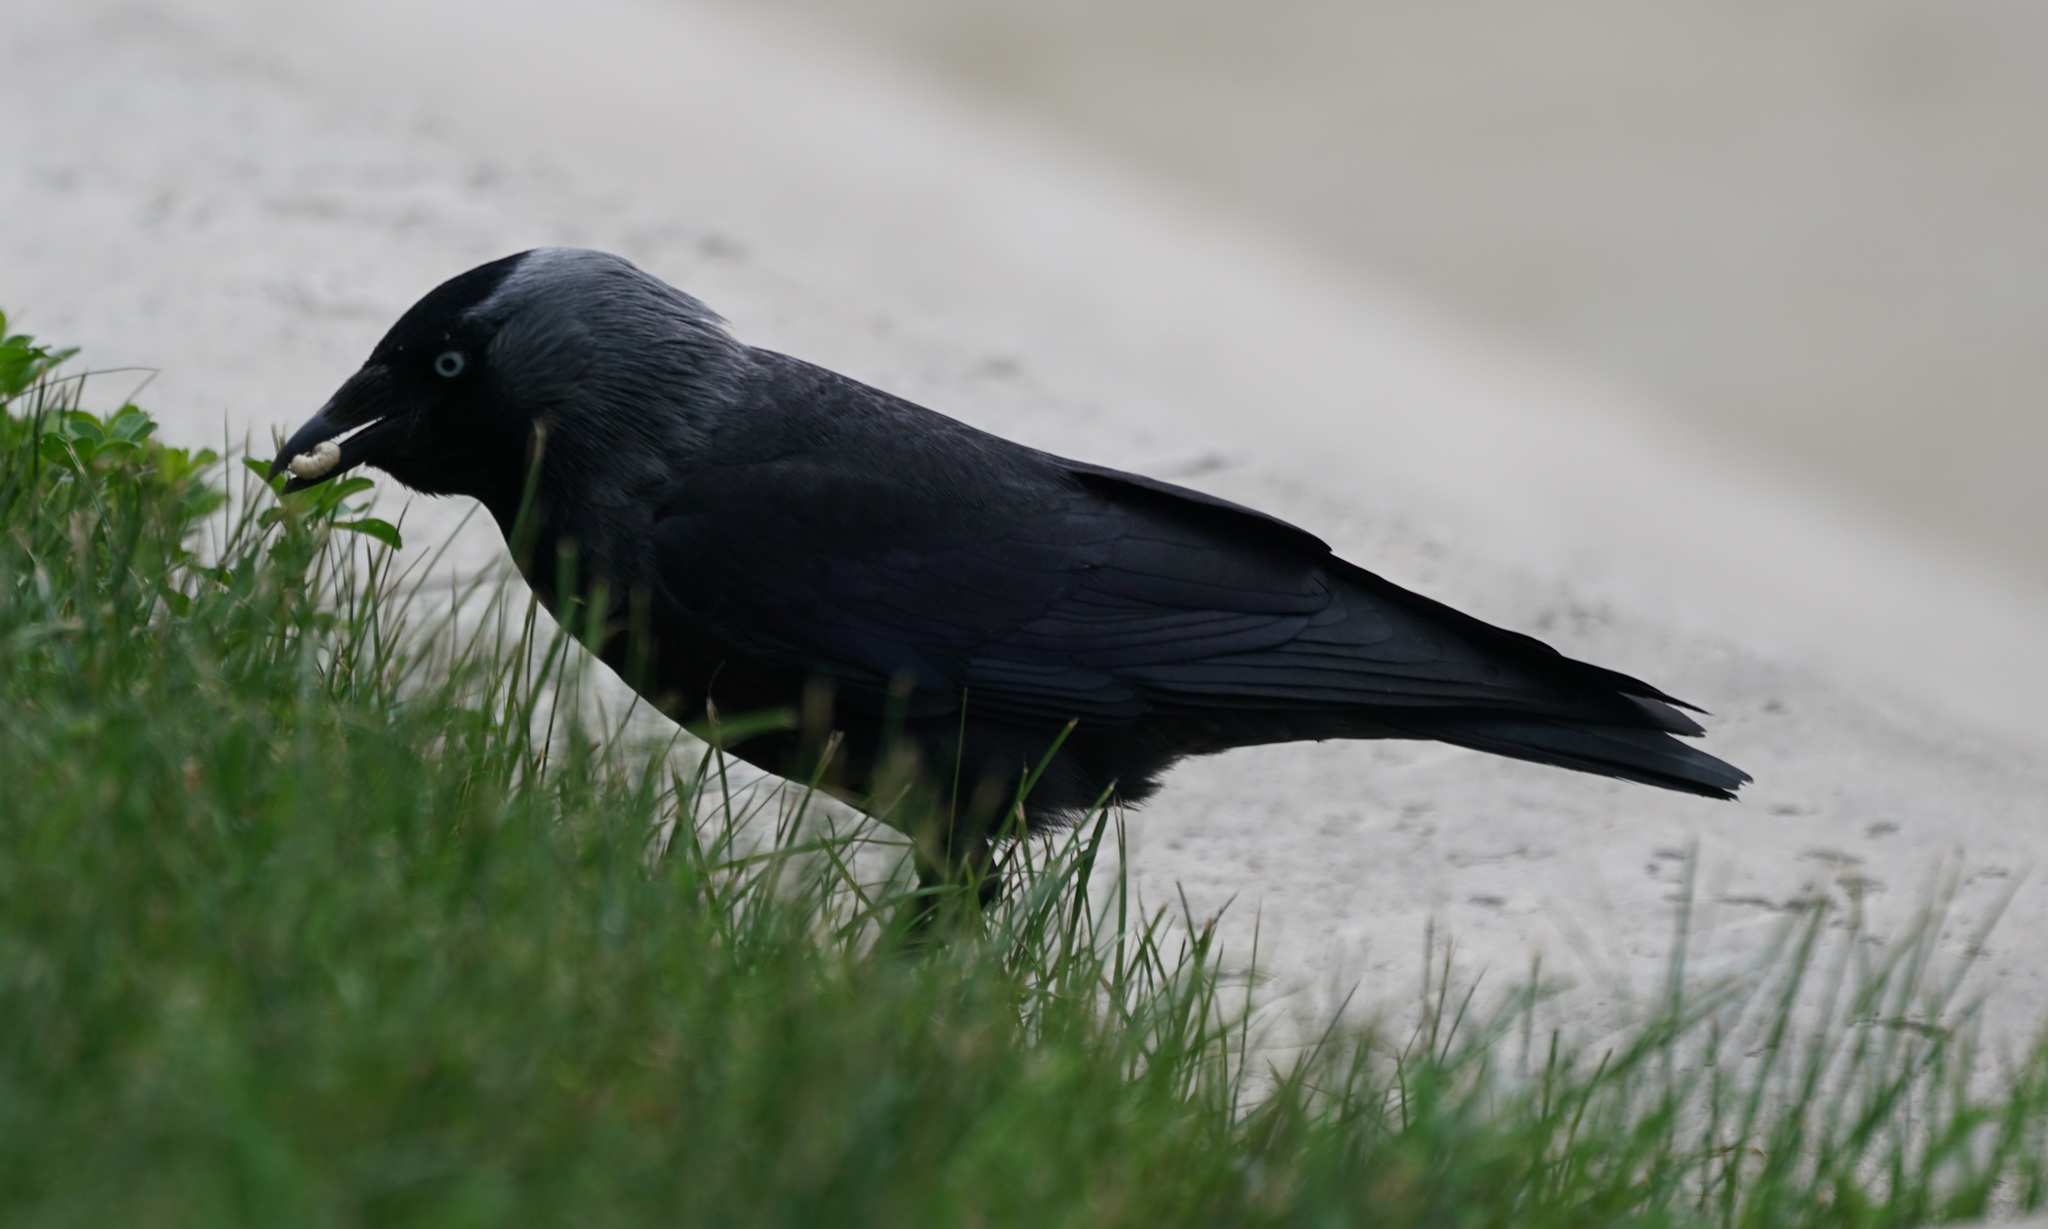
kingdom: Animalia
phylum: Chordata
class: Aves
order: Passeriformes
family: Corvidae
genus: Coloeus
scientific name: Coloeus monedula
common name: Western jackdaw
